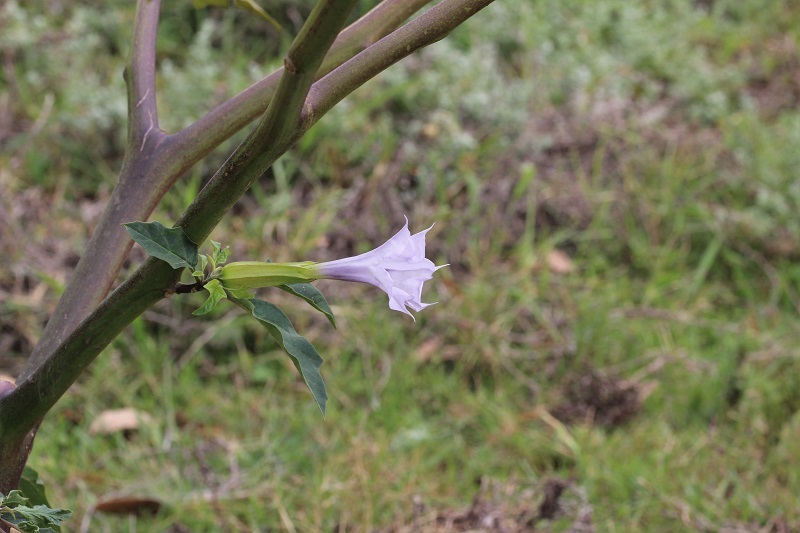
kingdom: Plantae
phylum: Tracheophyta
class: Magnoliopsida
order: Solanales
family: Solanaceae
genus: Datura
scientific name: Datura stramonium
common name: Thorn-apple
